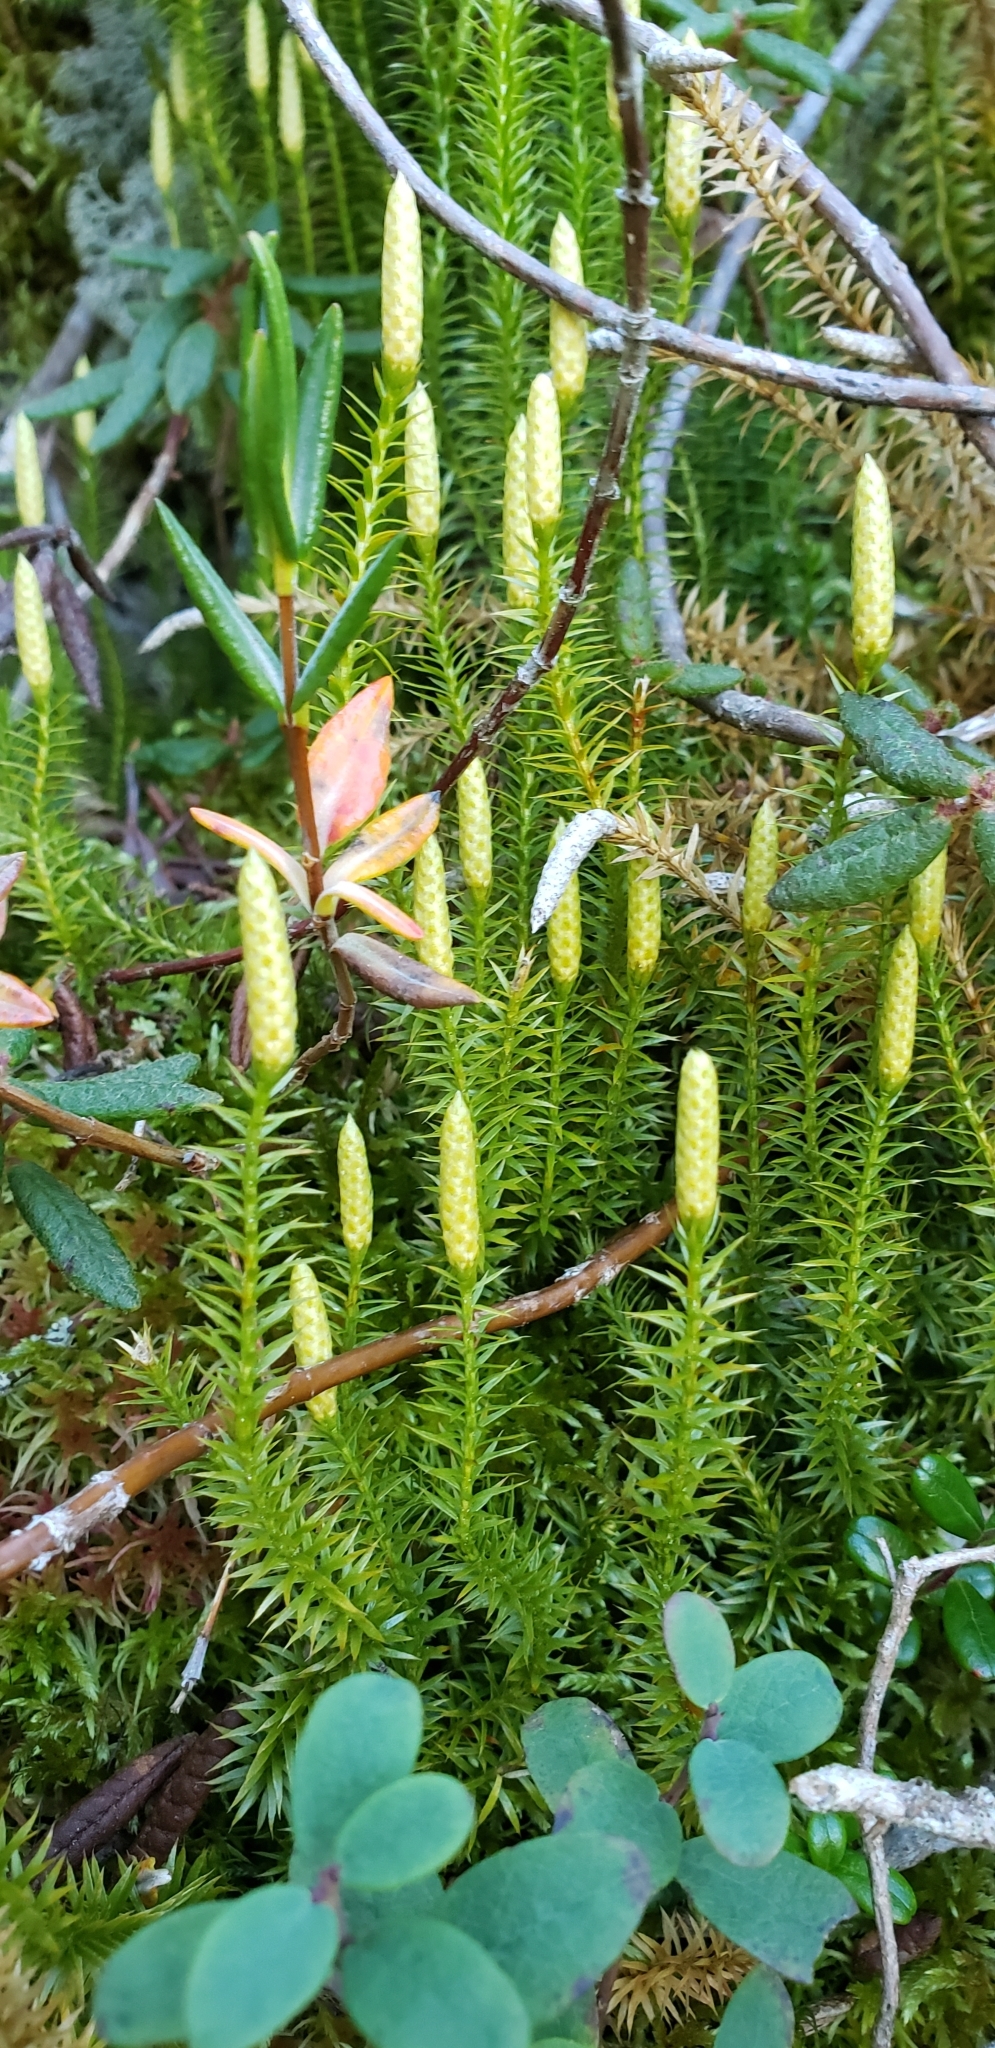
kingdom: Plantae
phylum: Tracheophyta
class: Lycopodiopsida
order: Lycopodiales
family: Lycopodiaceae
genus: Spinulum
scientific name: Spinulum annotinum
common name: Interrupted club-moss
